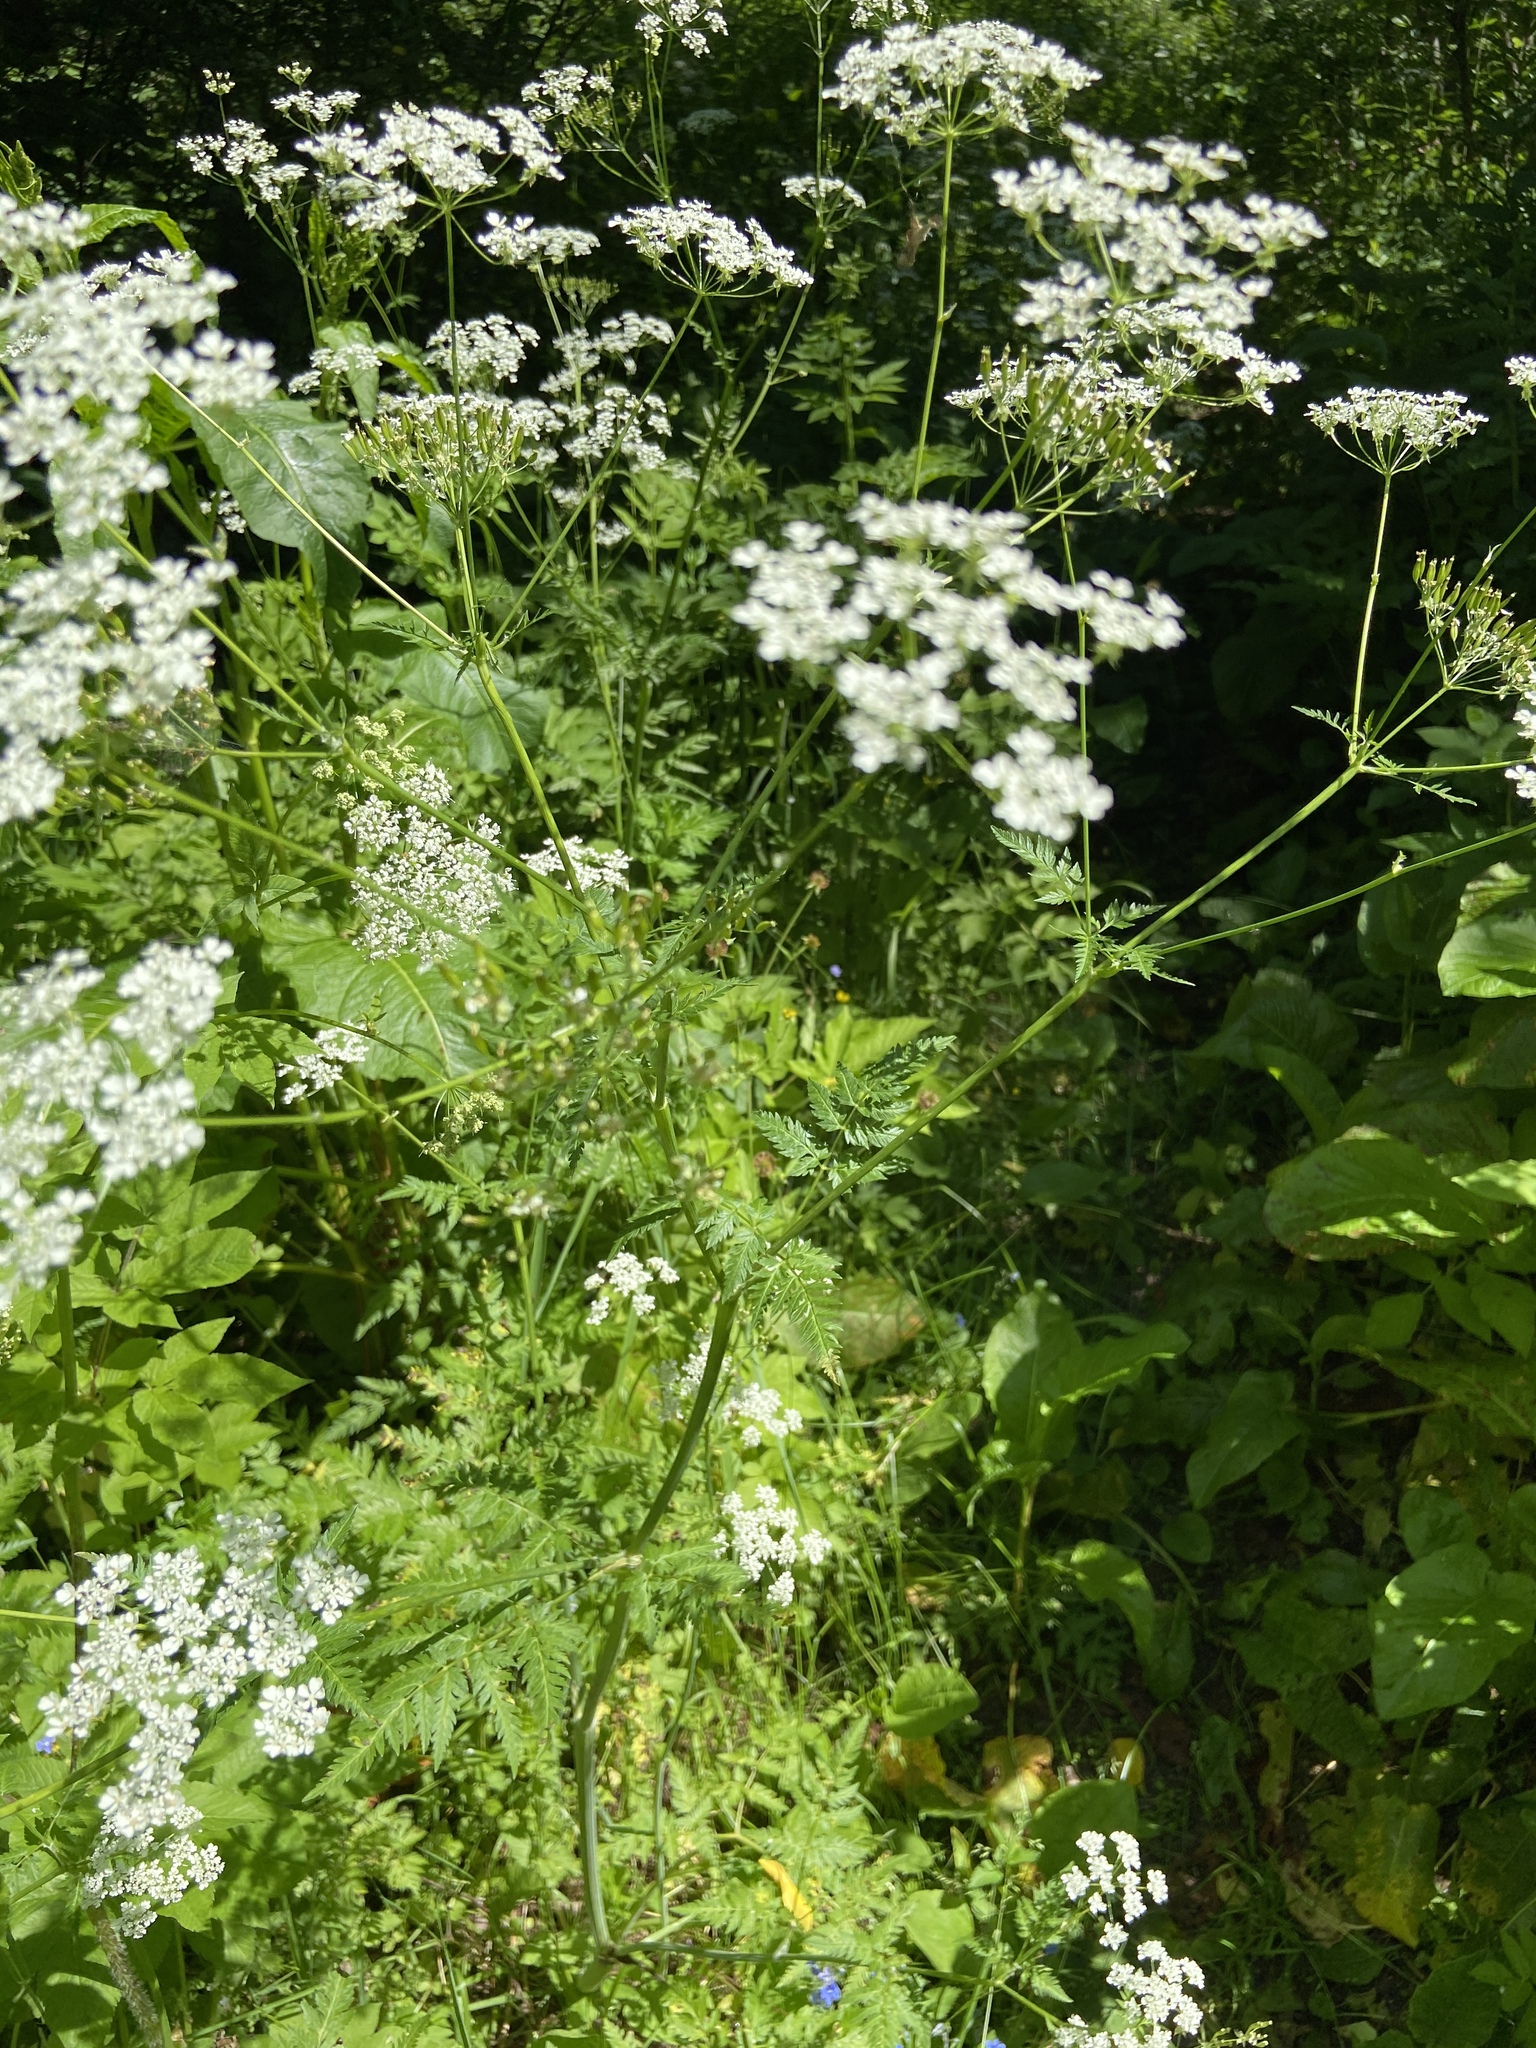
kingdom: Plantae
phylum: Tracheophyta
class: Magnoliopsida
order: Apiales
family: Apiaceae
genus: Anthriscus
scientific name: Anthriscus sylvestris
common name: Cow parsley
